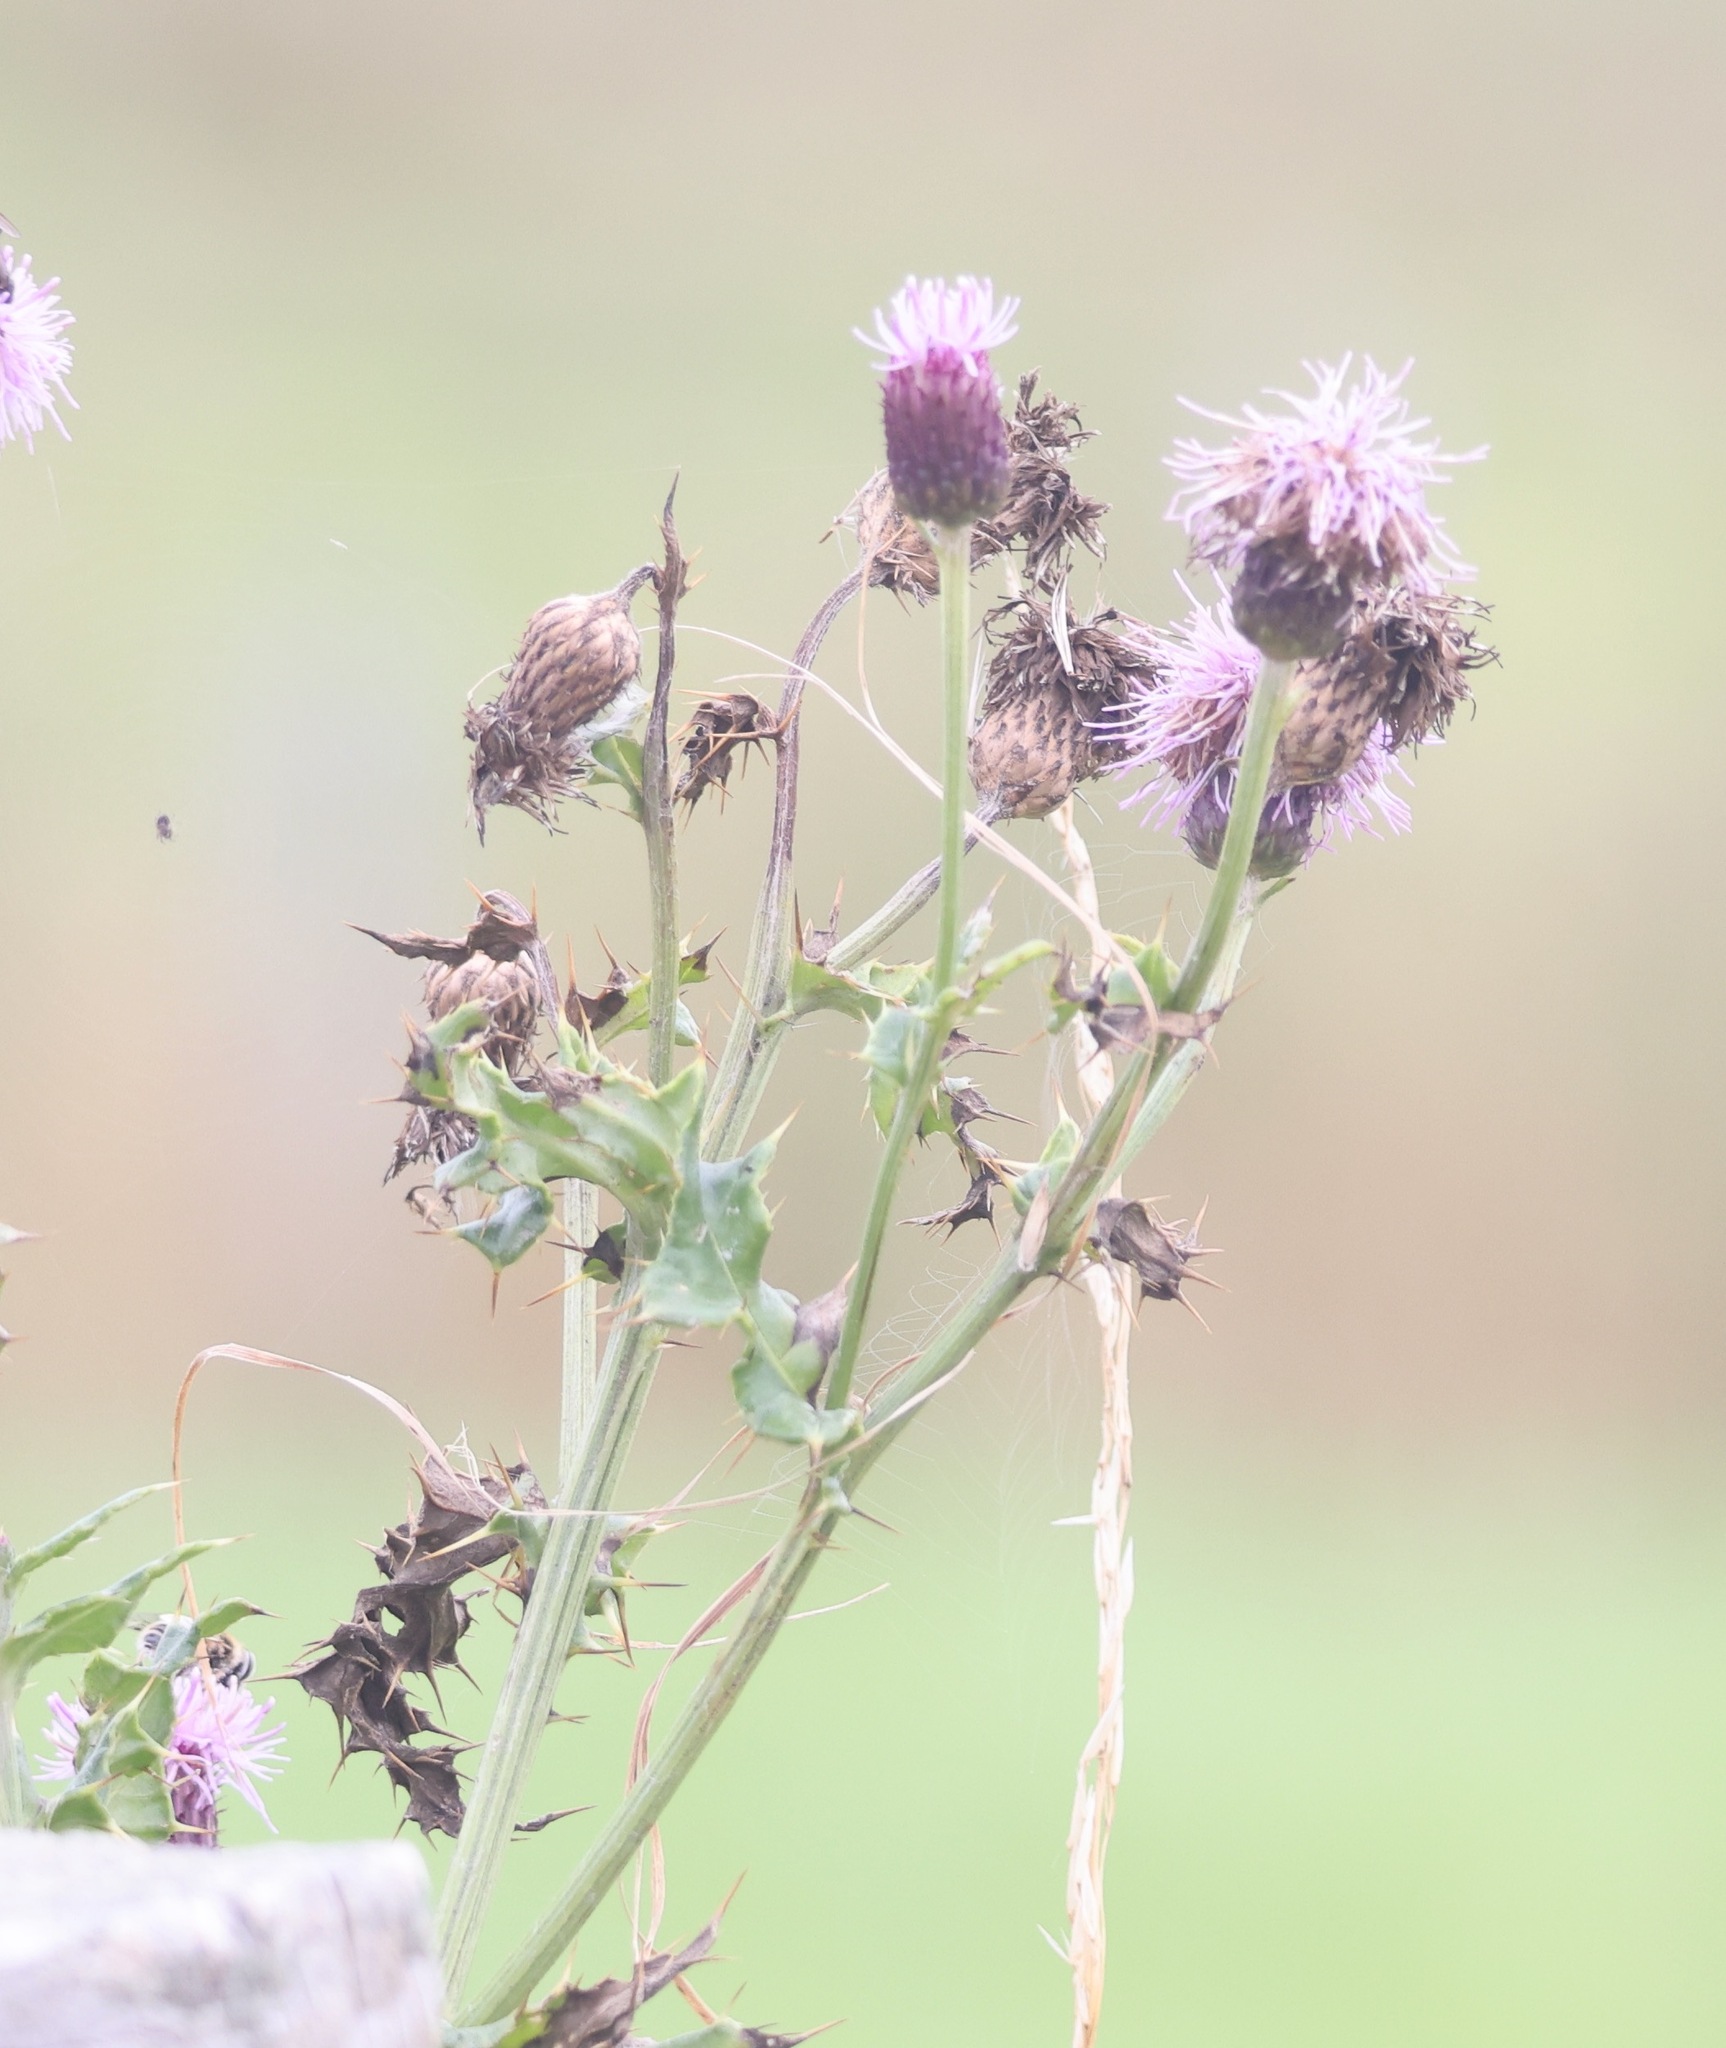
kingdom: Plantae
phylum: Tracheophyta
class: Magnoliopsida
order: Asterales
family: Asteraceae
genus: Cirsium
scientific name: Cirsium arvense
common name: Creeping thistle
